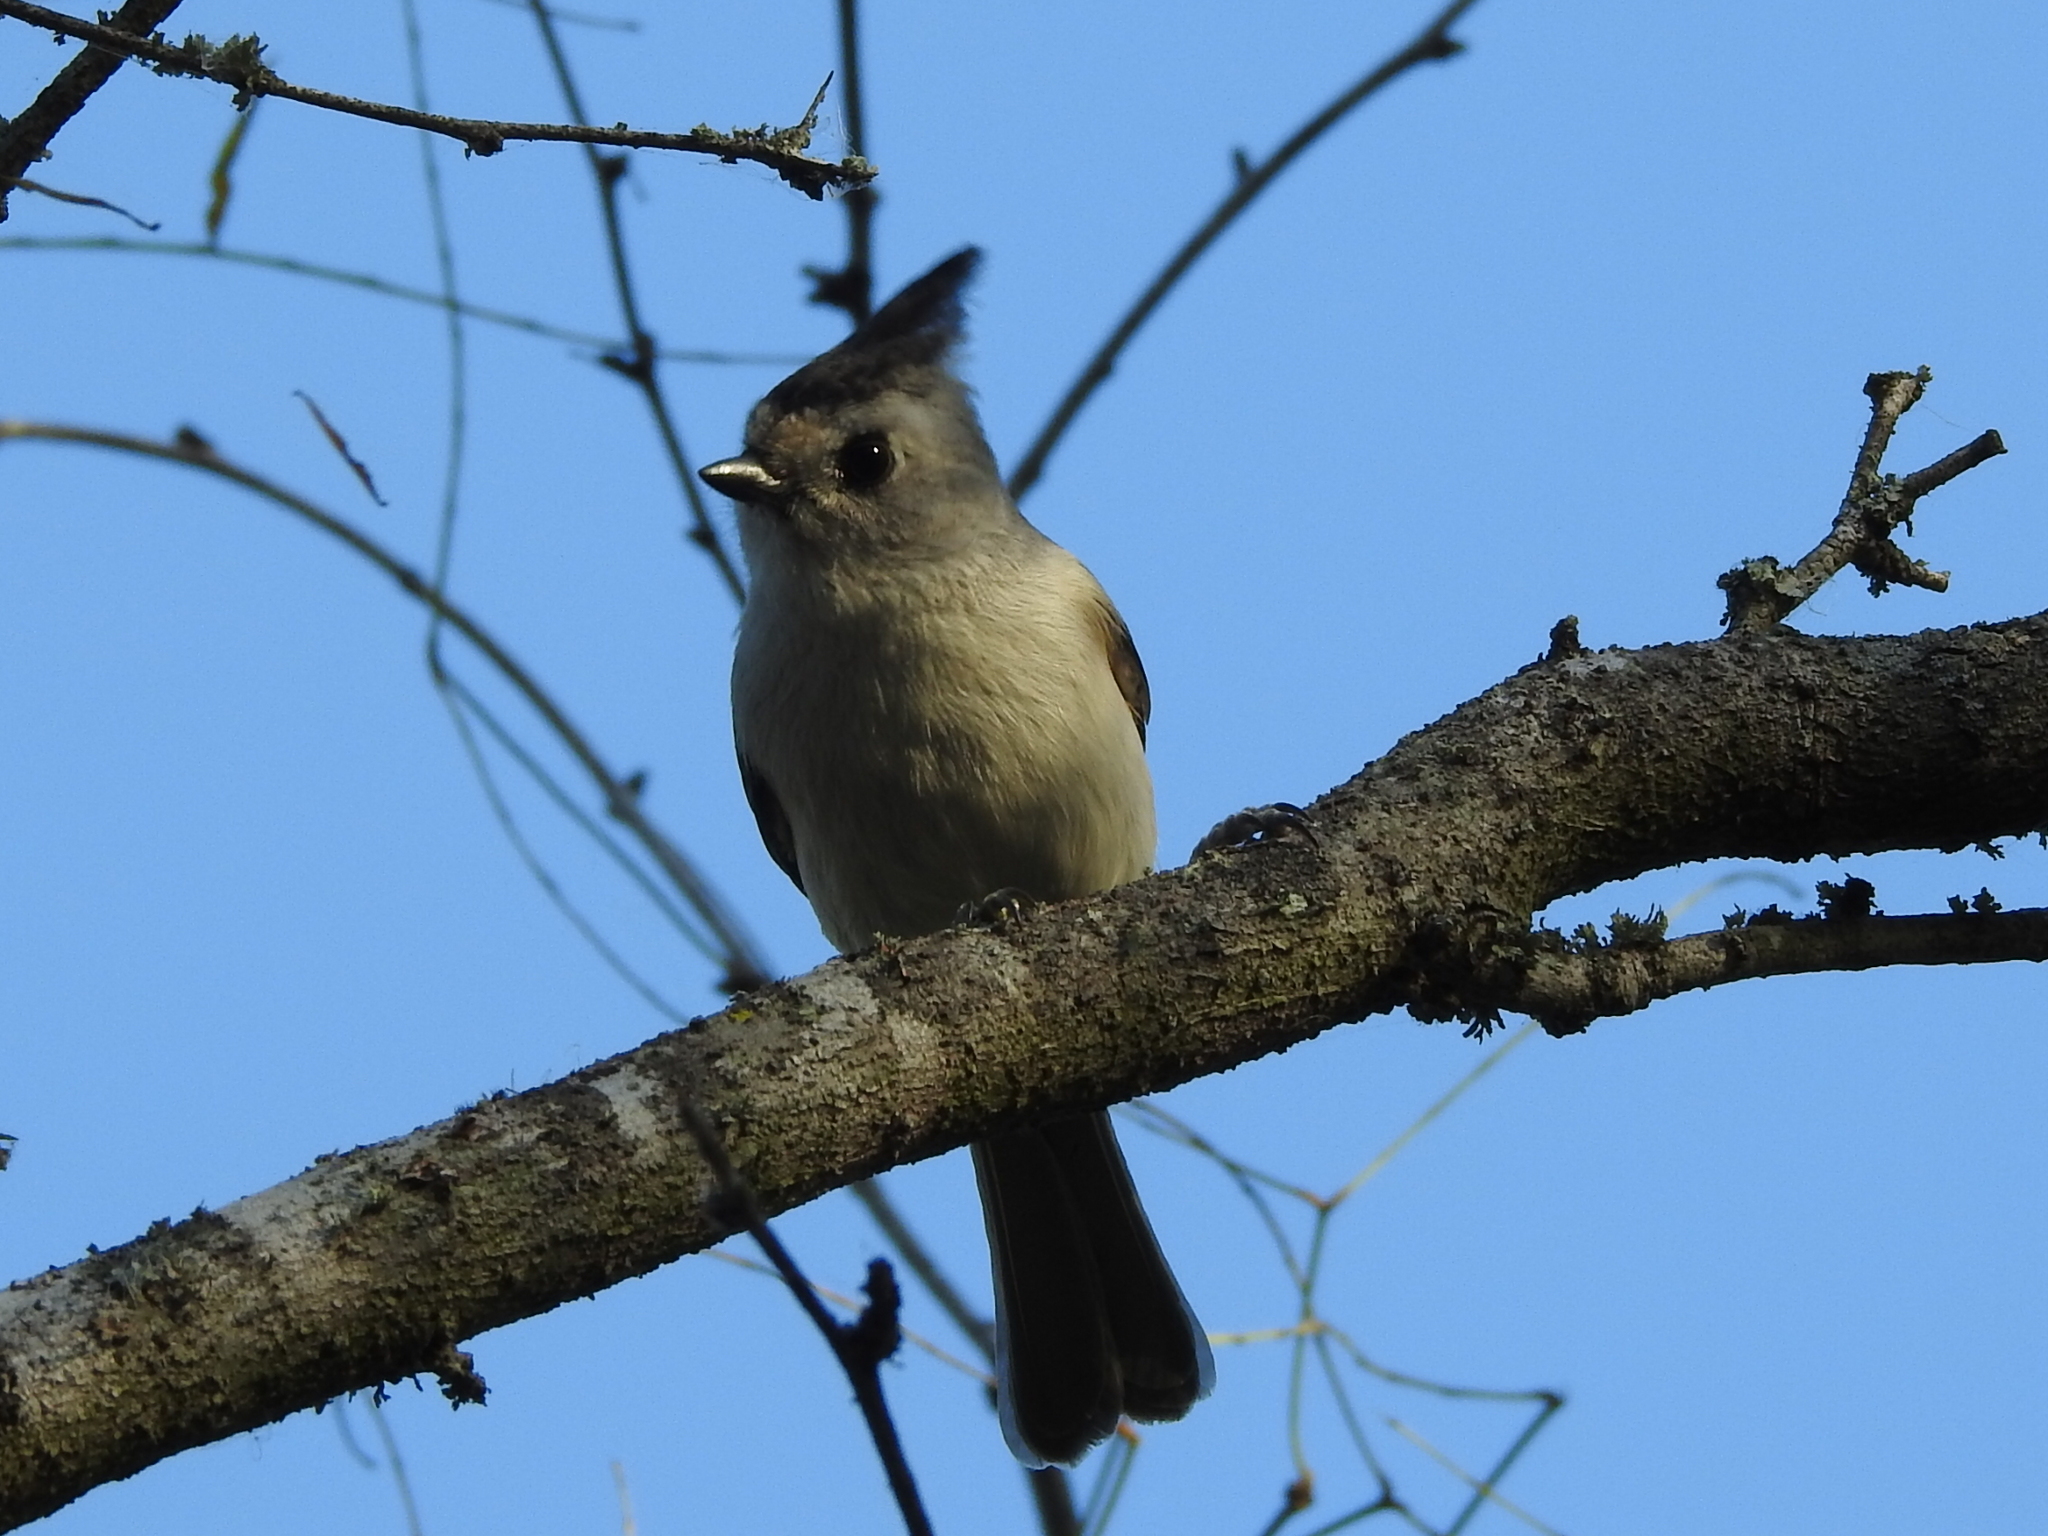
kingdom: Animalia
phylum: Chordata
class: Aves
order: Passeriformes
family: Paridae
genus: Baeolophus
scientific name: Baeolophus atricristatus
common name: Black-crested titmouse
